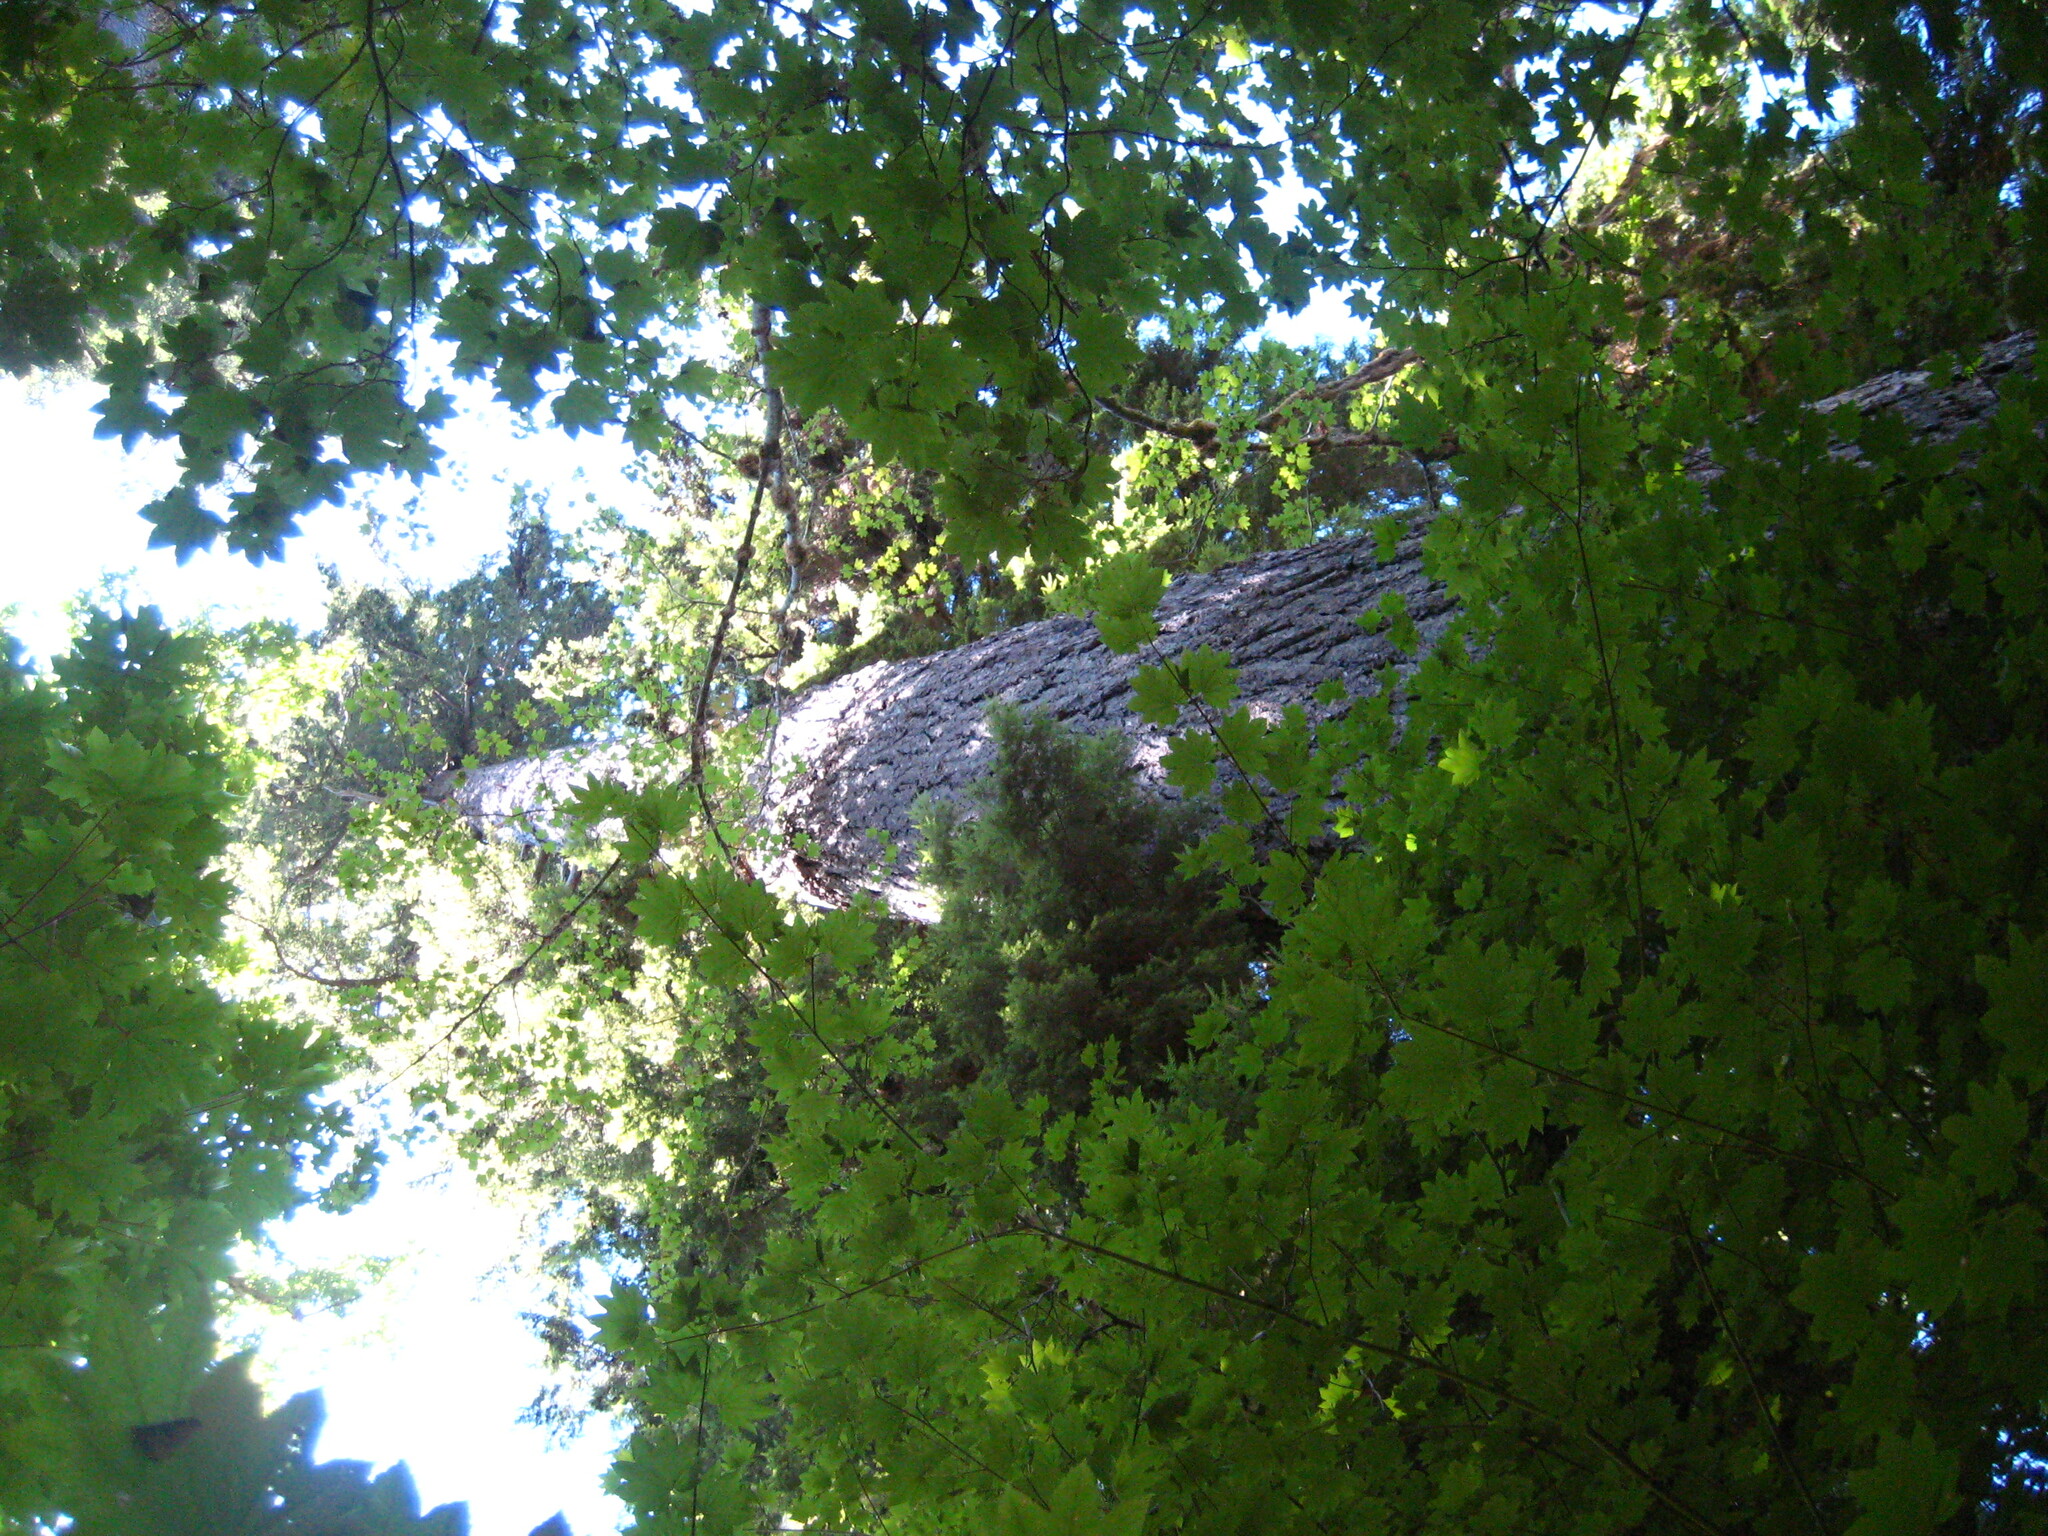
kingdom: Plantae
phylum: Tracheophyta
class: Magnoliopsida
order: Sapindales
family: Sapindaceae
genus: Acer
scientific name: Acer circinatum
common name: Vine maple
